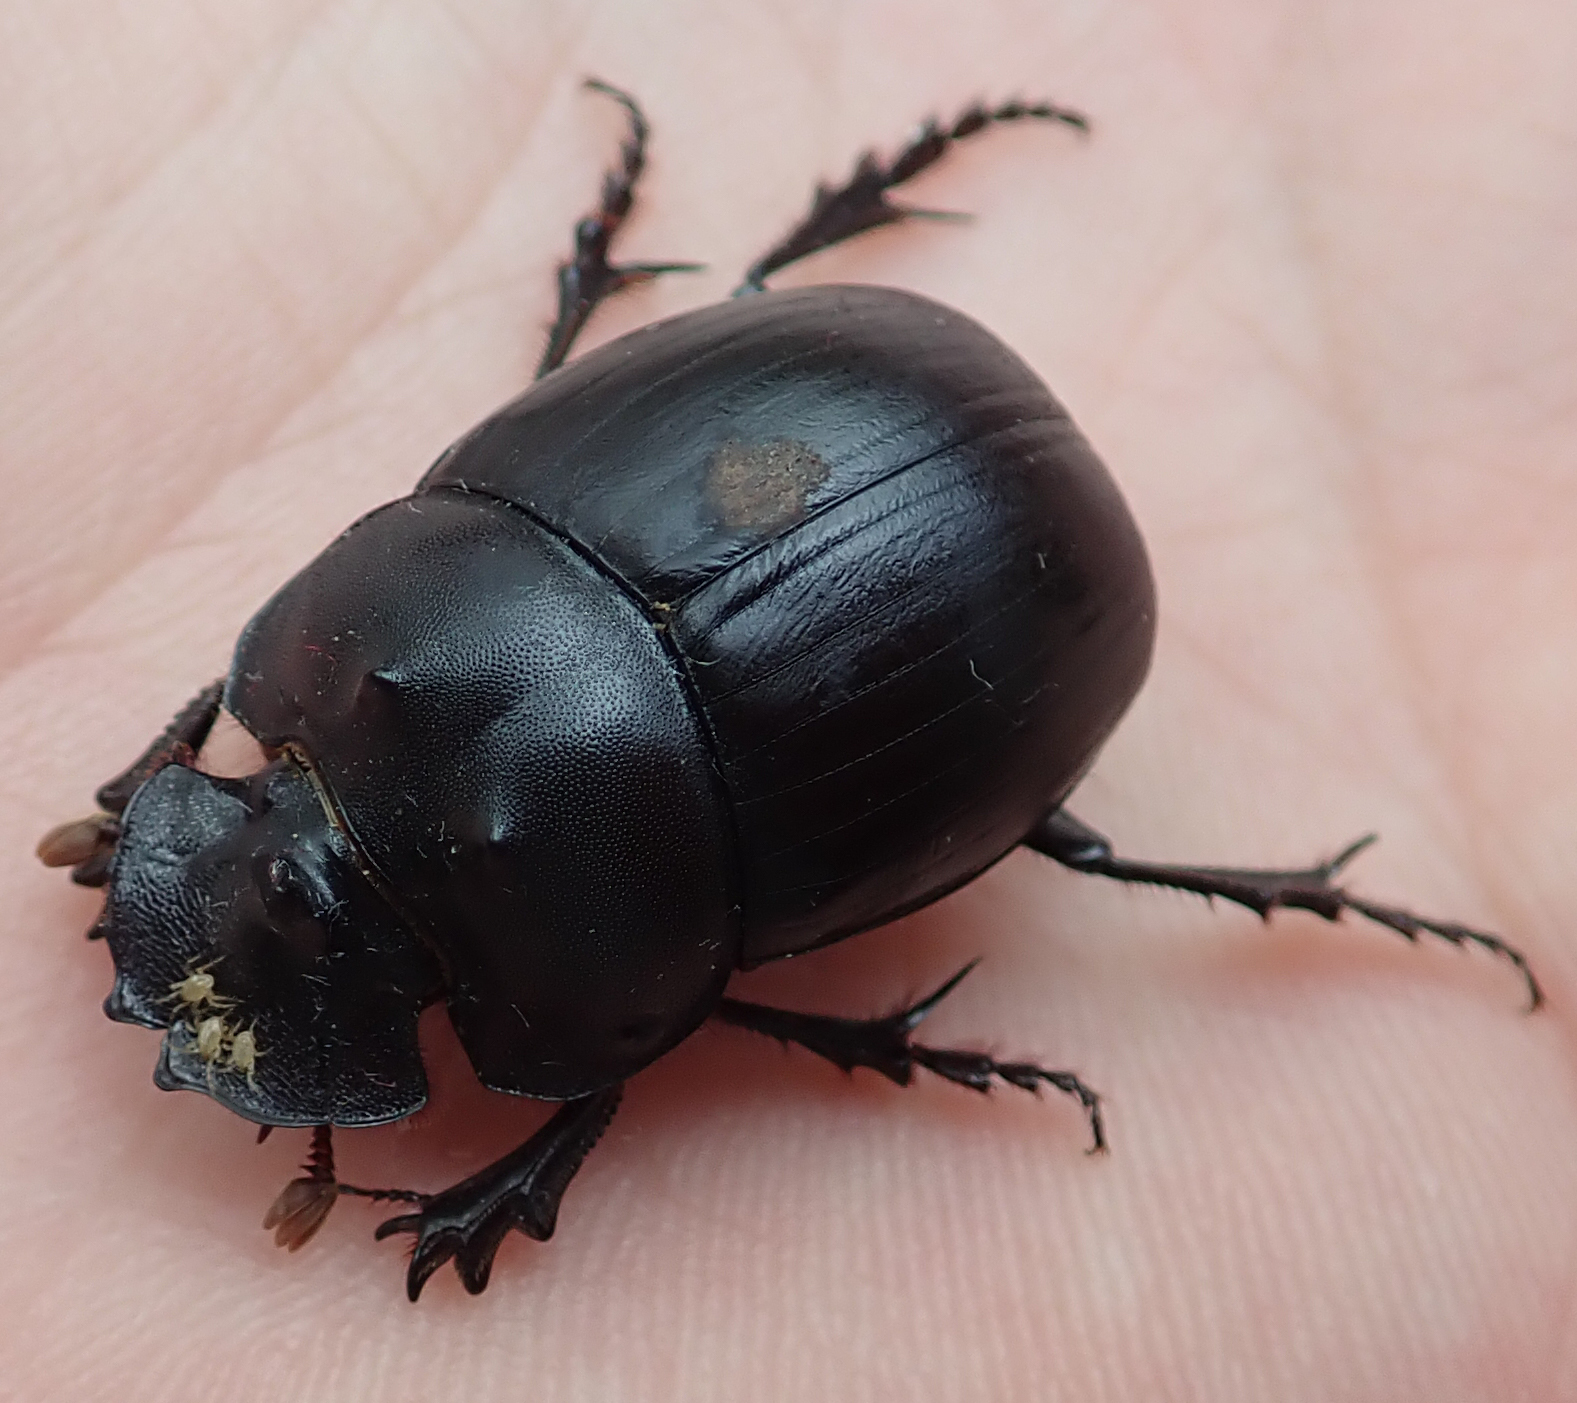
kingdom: Animalia
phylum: Arthropoda
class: Insecta
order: Coleoptera
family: Scarabaeidae
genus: Catharsius
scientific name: Catharsius aegeus
